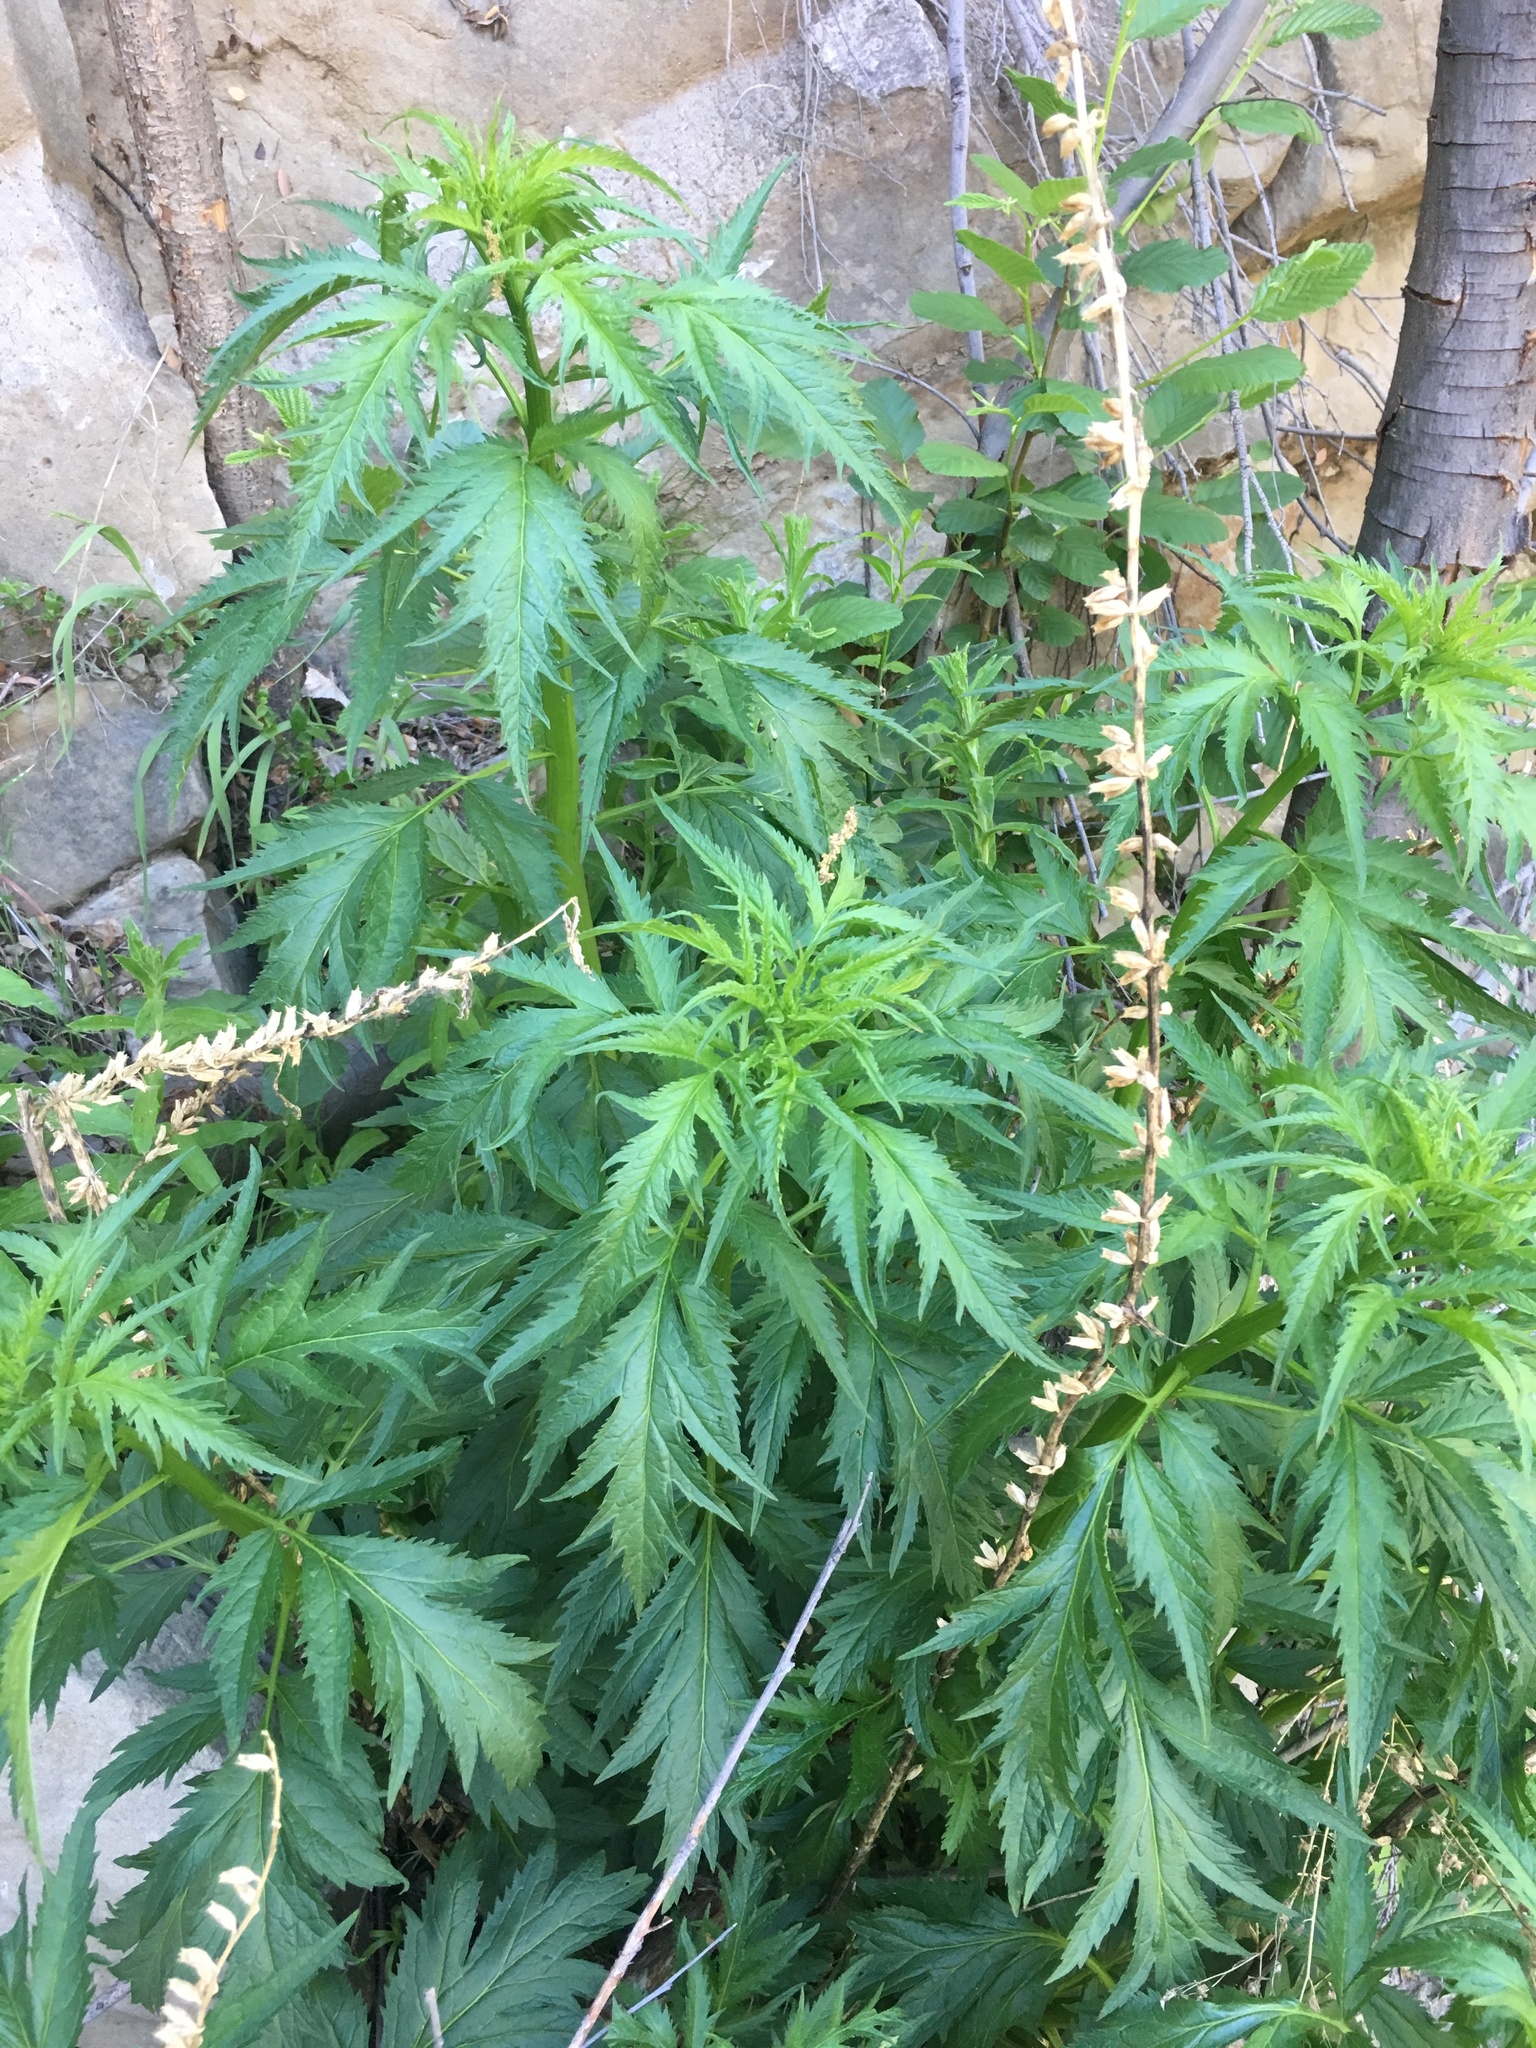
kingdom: Plantae
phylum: Tracheophyta
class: Magnoliopsida
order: Cucurbitales
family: Datiscaceae
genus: Datisca
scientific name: Datisca glomerata
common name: Durango-root
